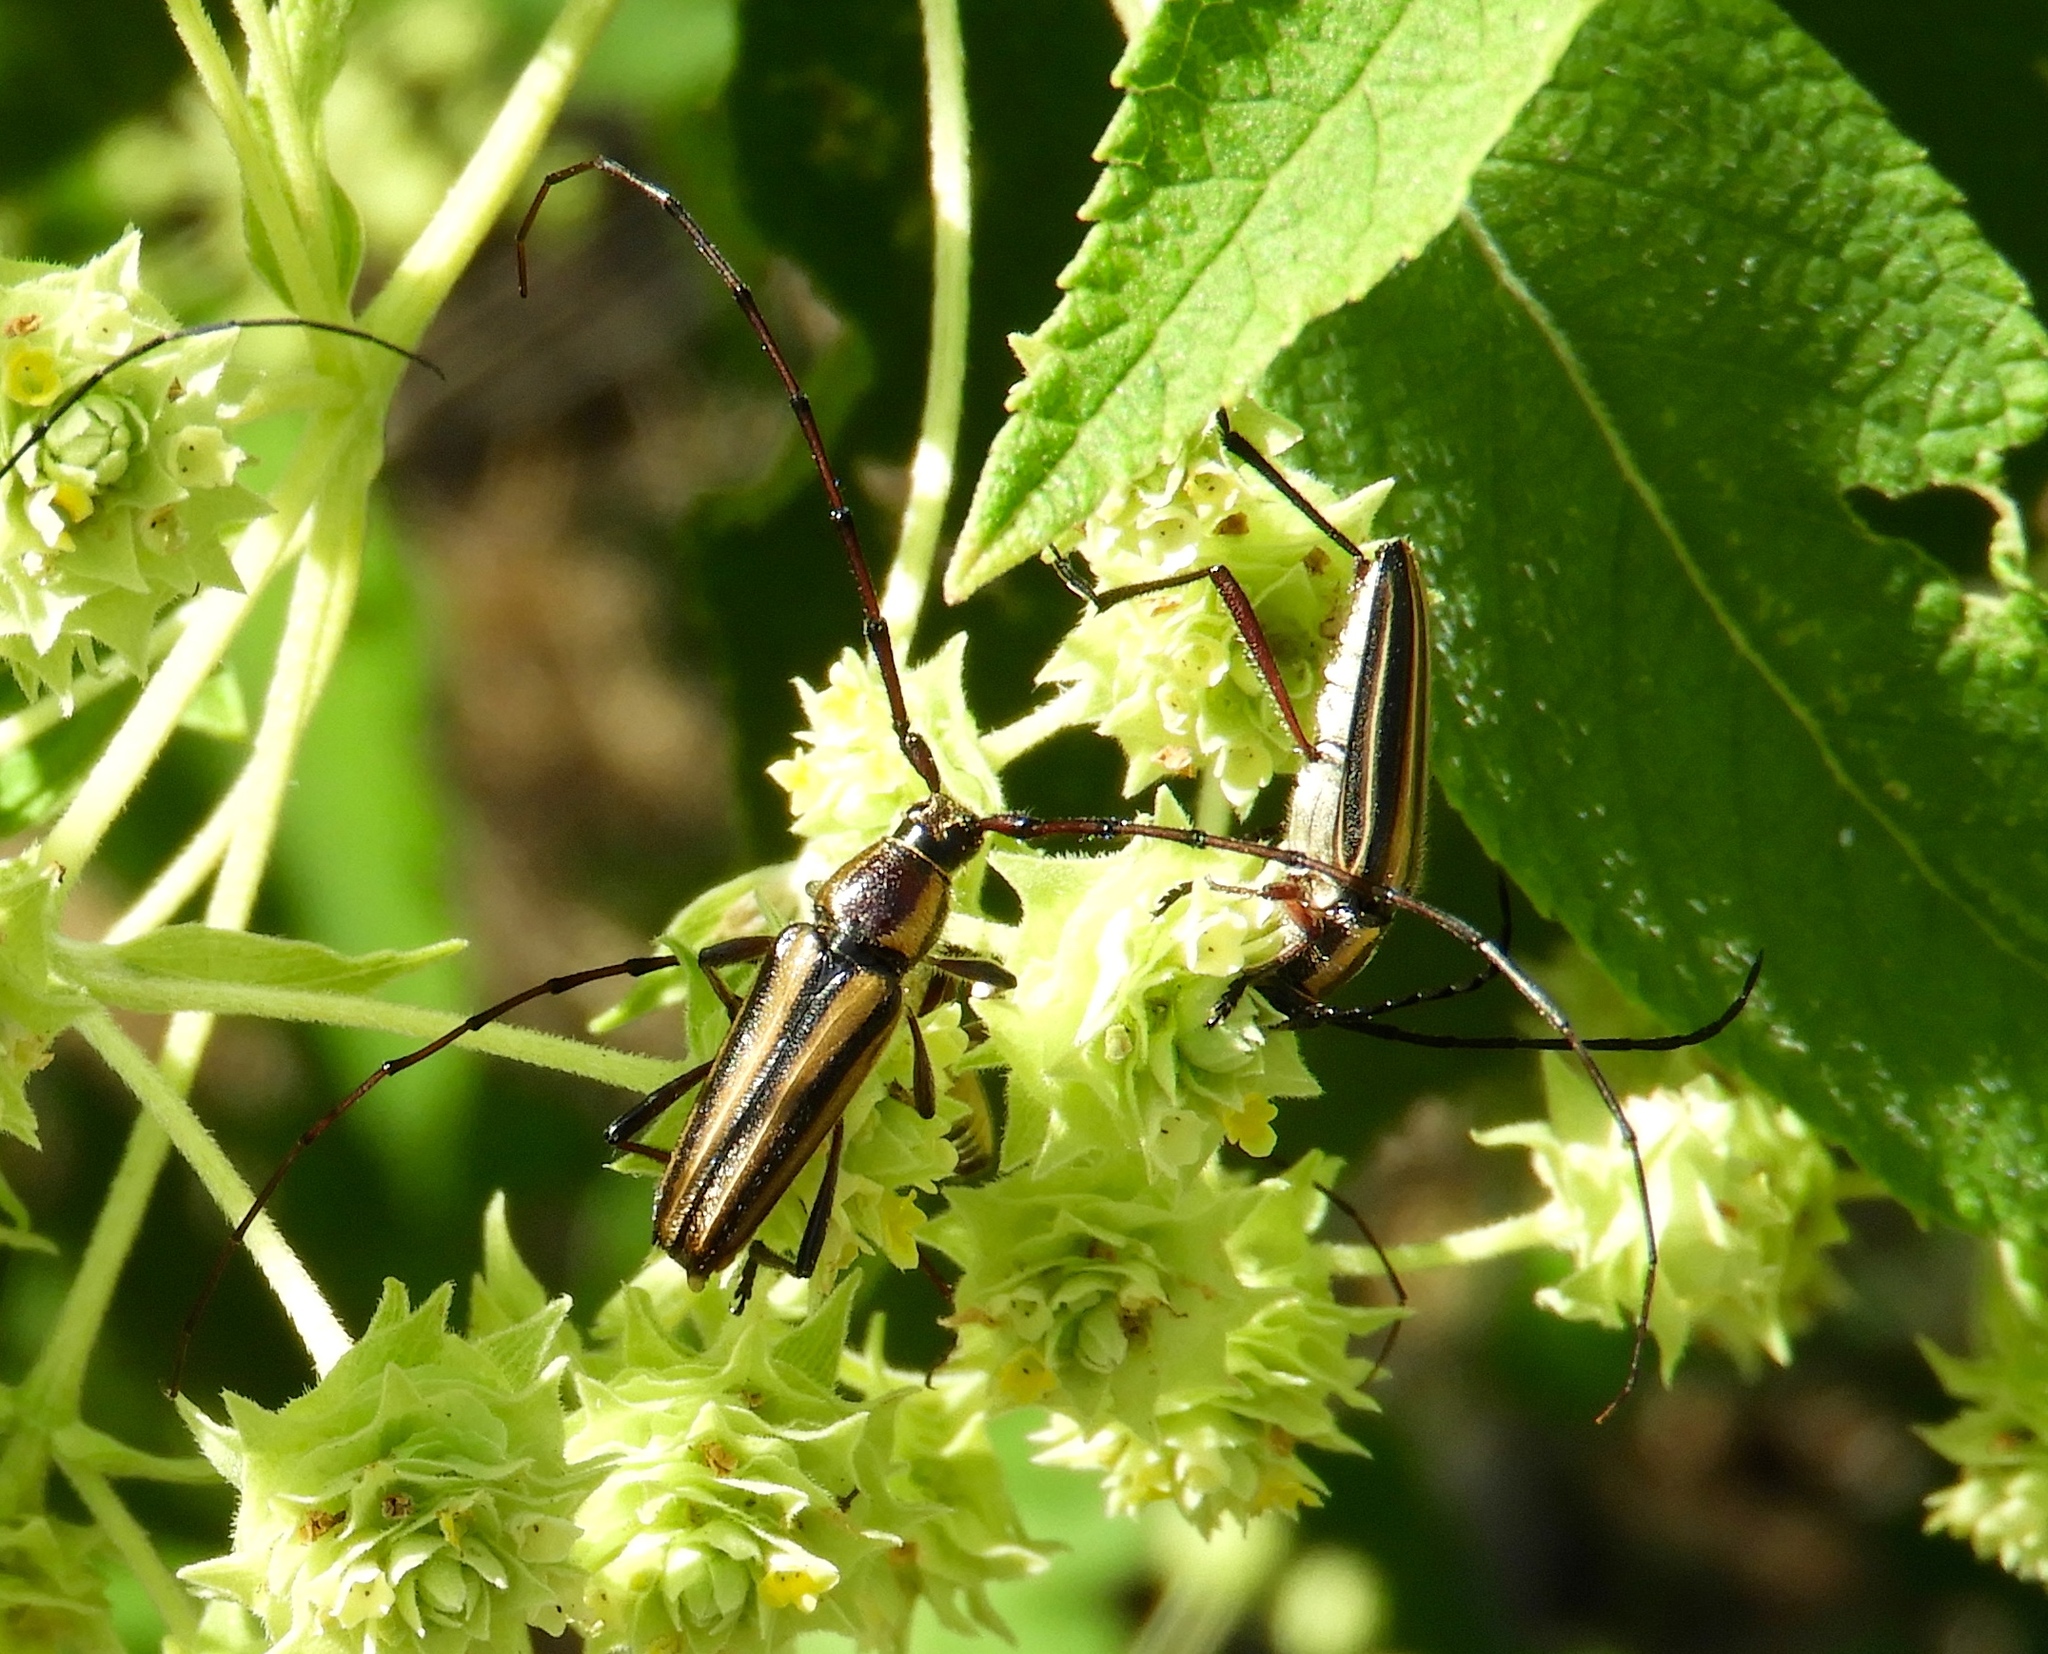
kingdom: Animalia
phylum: Arthropoda
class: Insecta
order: Coleoptera
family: Cerambycidae
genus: Sphaenothecus
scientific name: Sphaenothecus maccartyi
